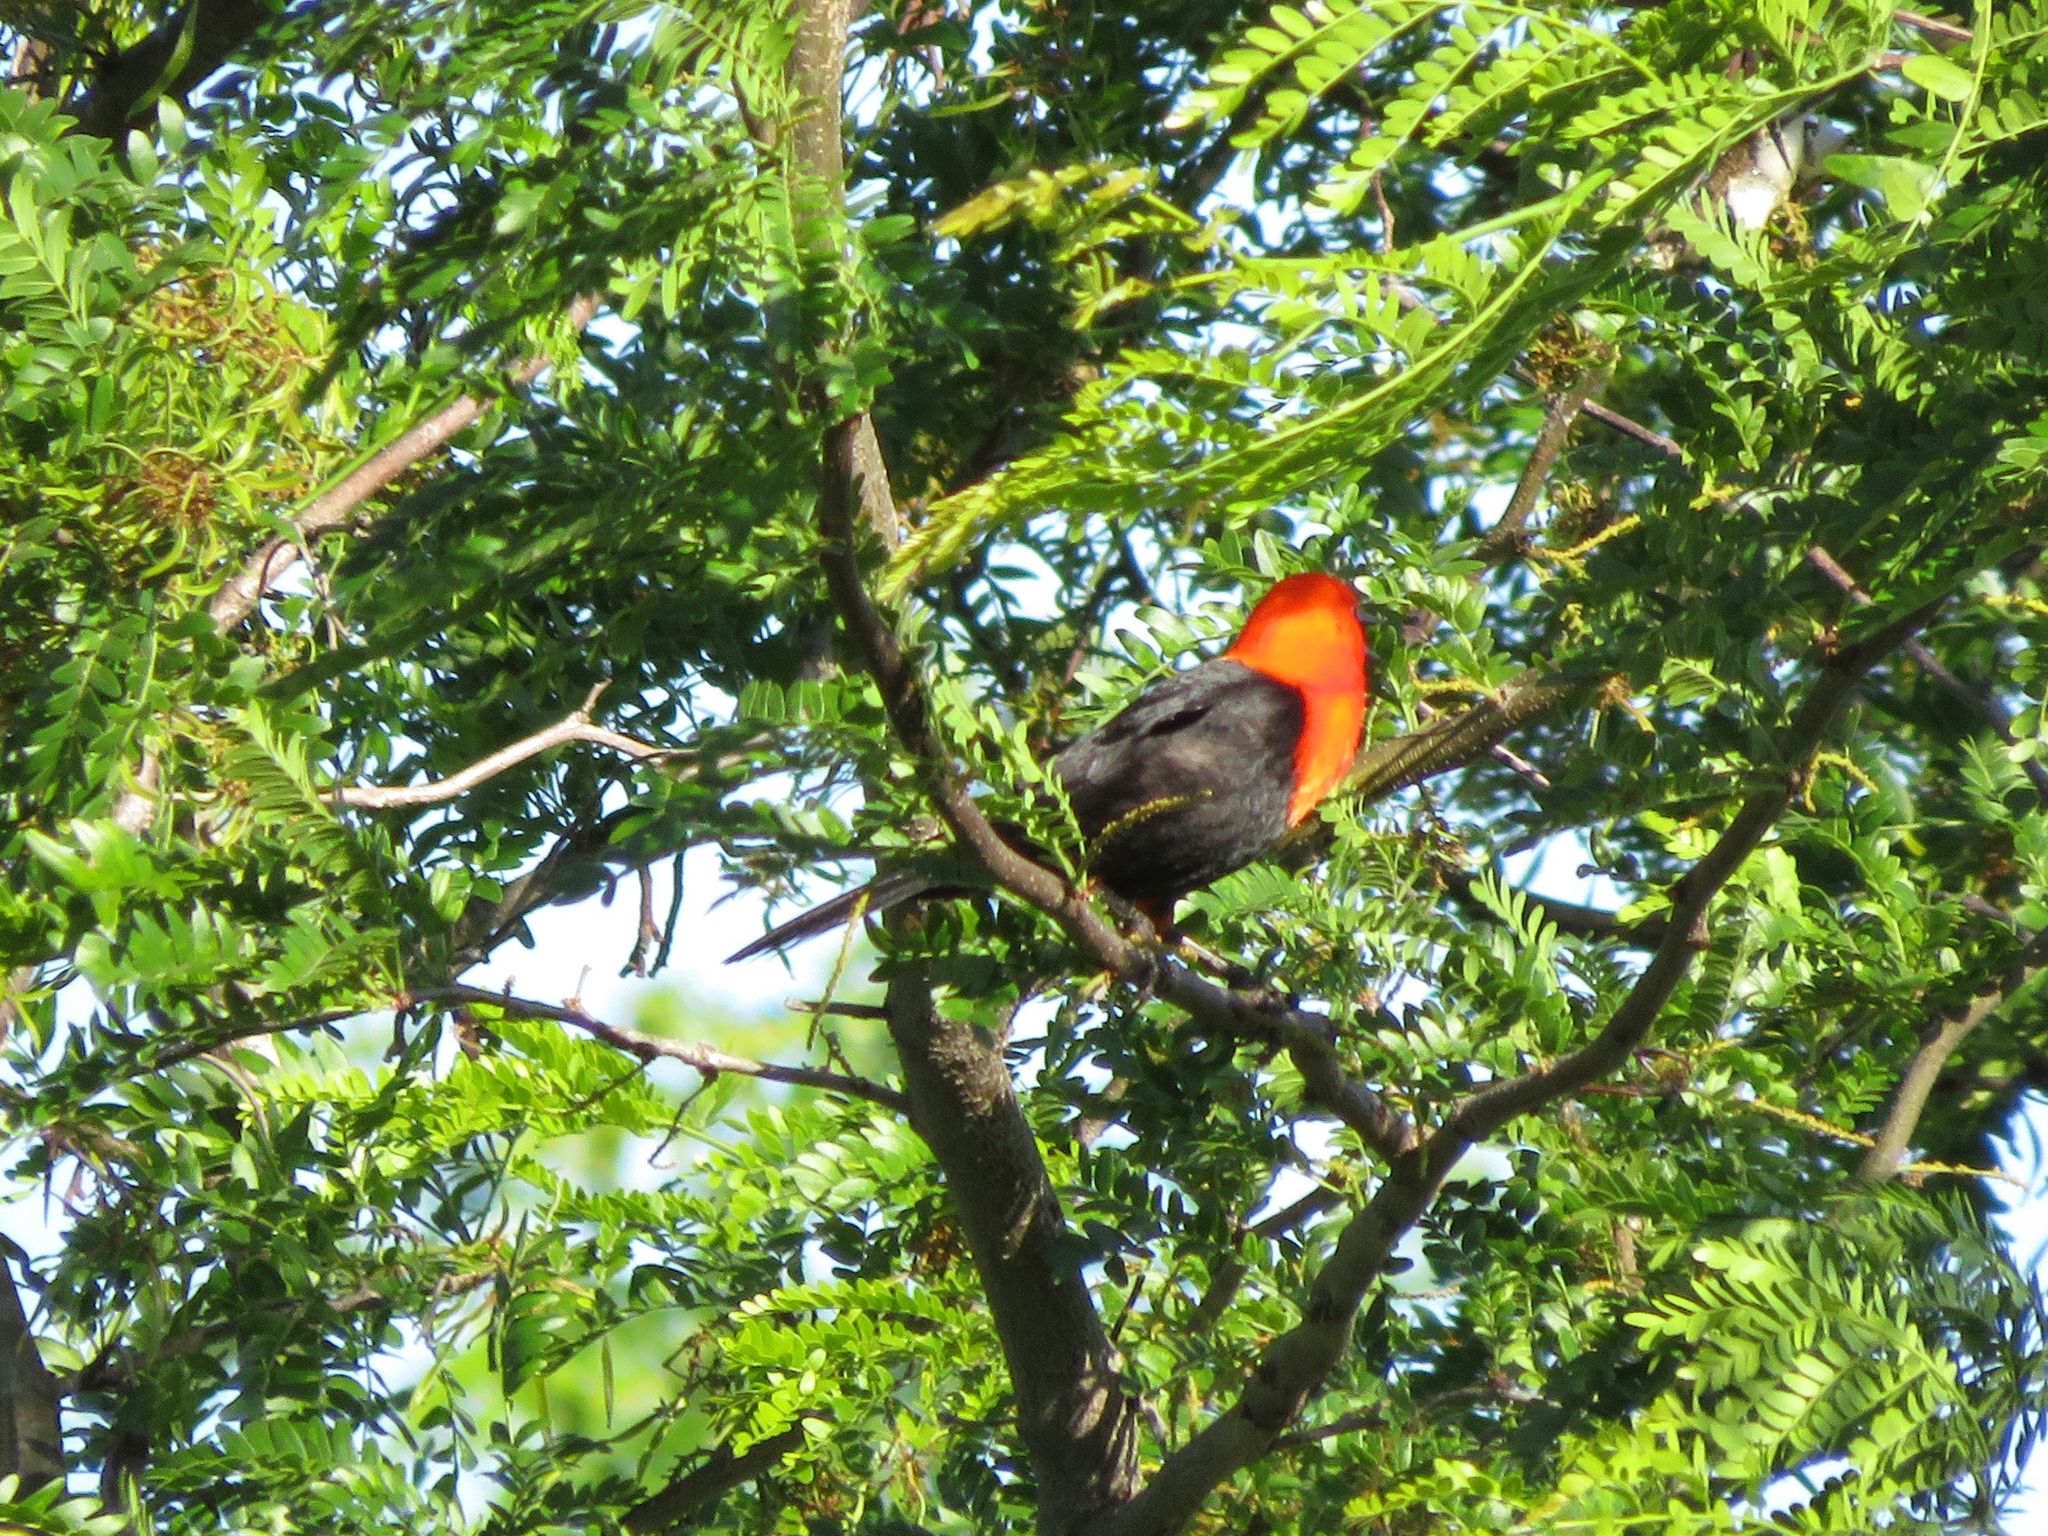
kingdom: Animalia
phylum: Chordata
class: Aves
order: Passeriformes
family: Icteridae
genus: Amblyramphus
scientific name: Amblyramphus holosericeus
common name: Scarlet-headed blackbird
